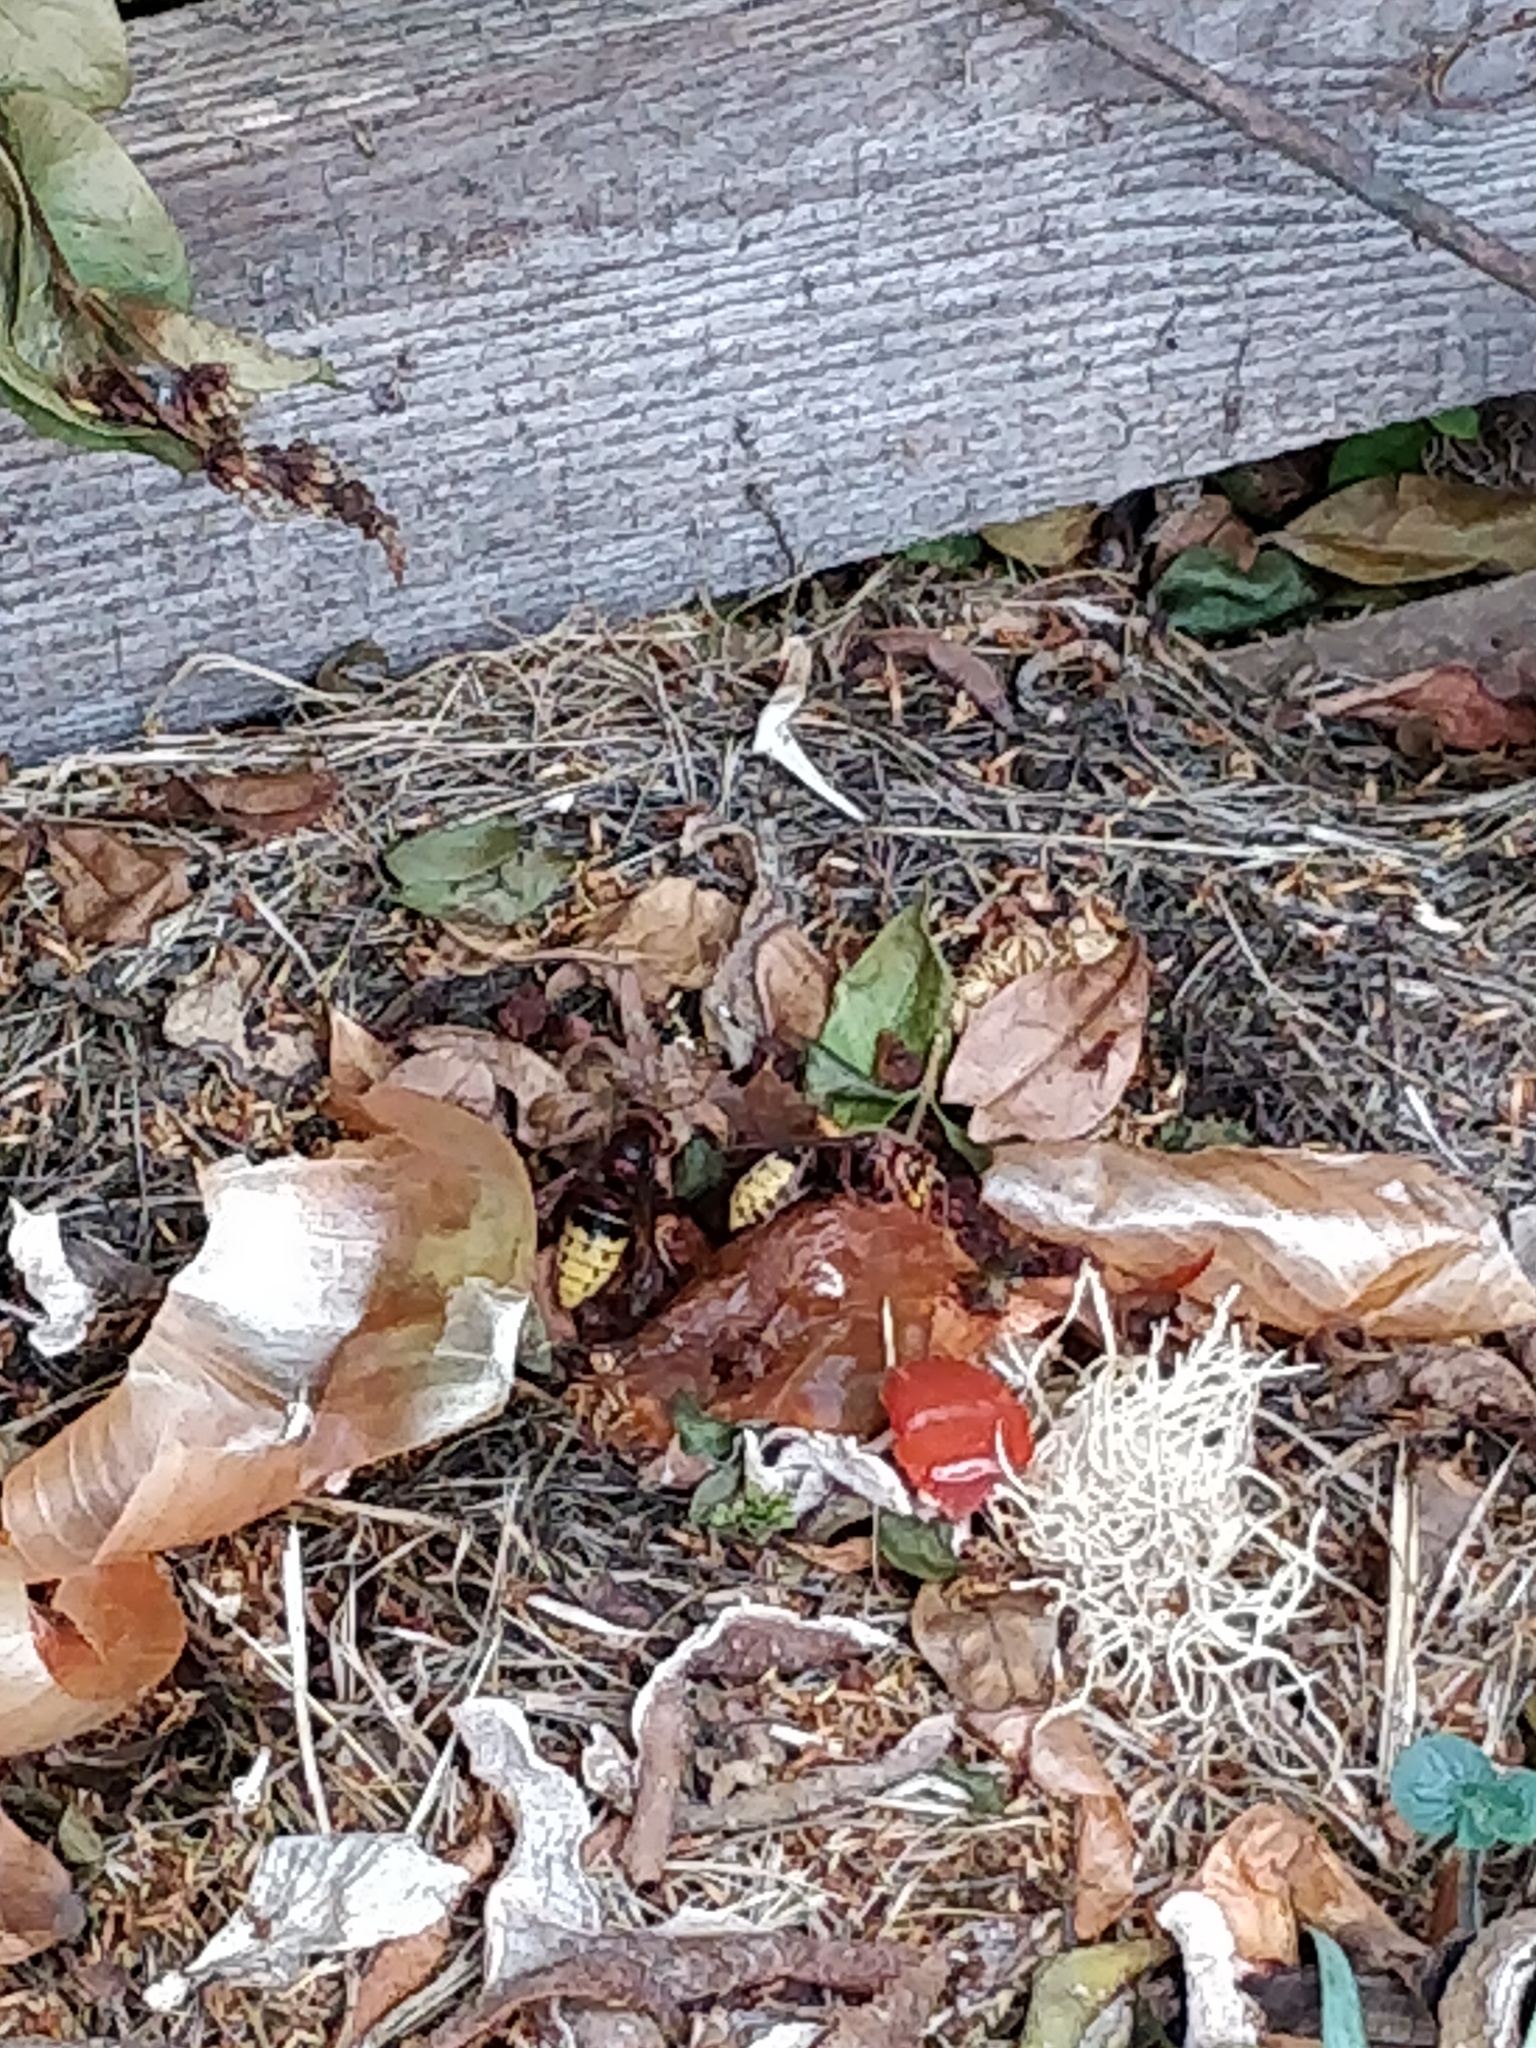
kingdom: Animalia
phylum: Arthropoda
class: Insecta
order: Hymenoptera
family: Vespidae
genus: Vespa
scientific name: Vespa crabro
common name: Hornet
